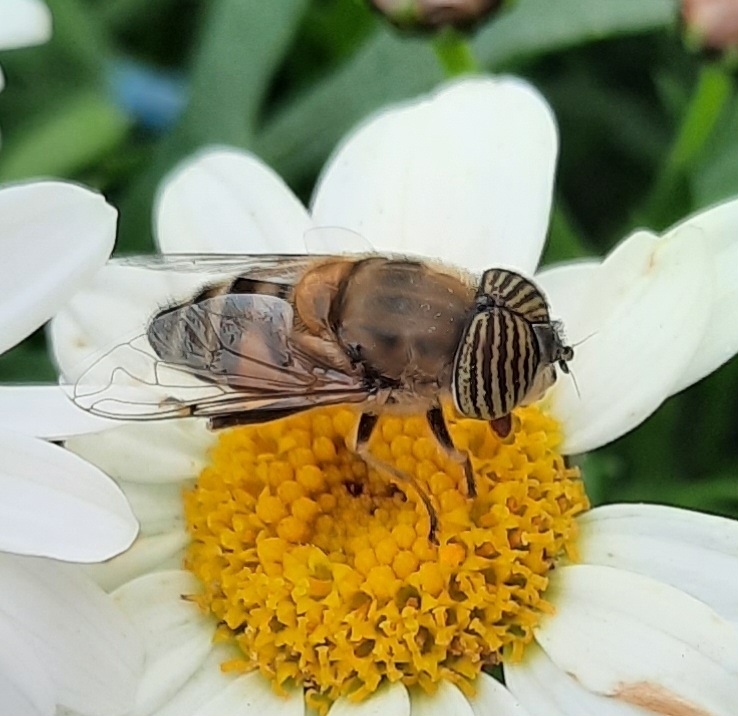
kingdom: Animalia
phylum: Arthropoda
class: Insecta
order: Diptera
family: Syrphidae
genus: Eristalinus
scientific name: Eristalinus taeniops
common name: Syrphid fly
